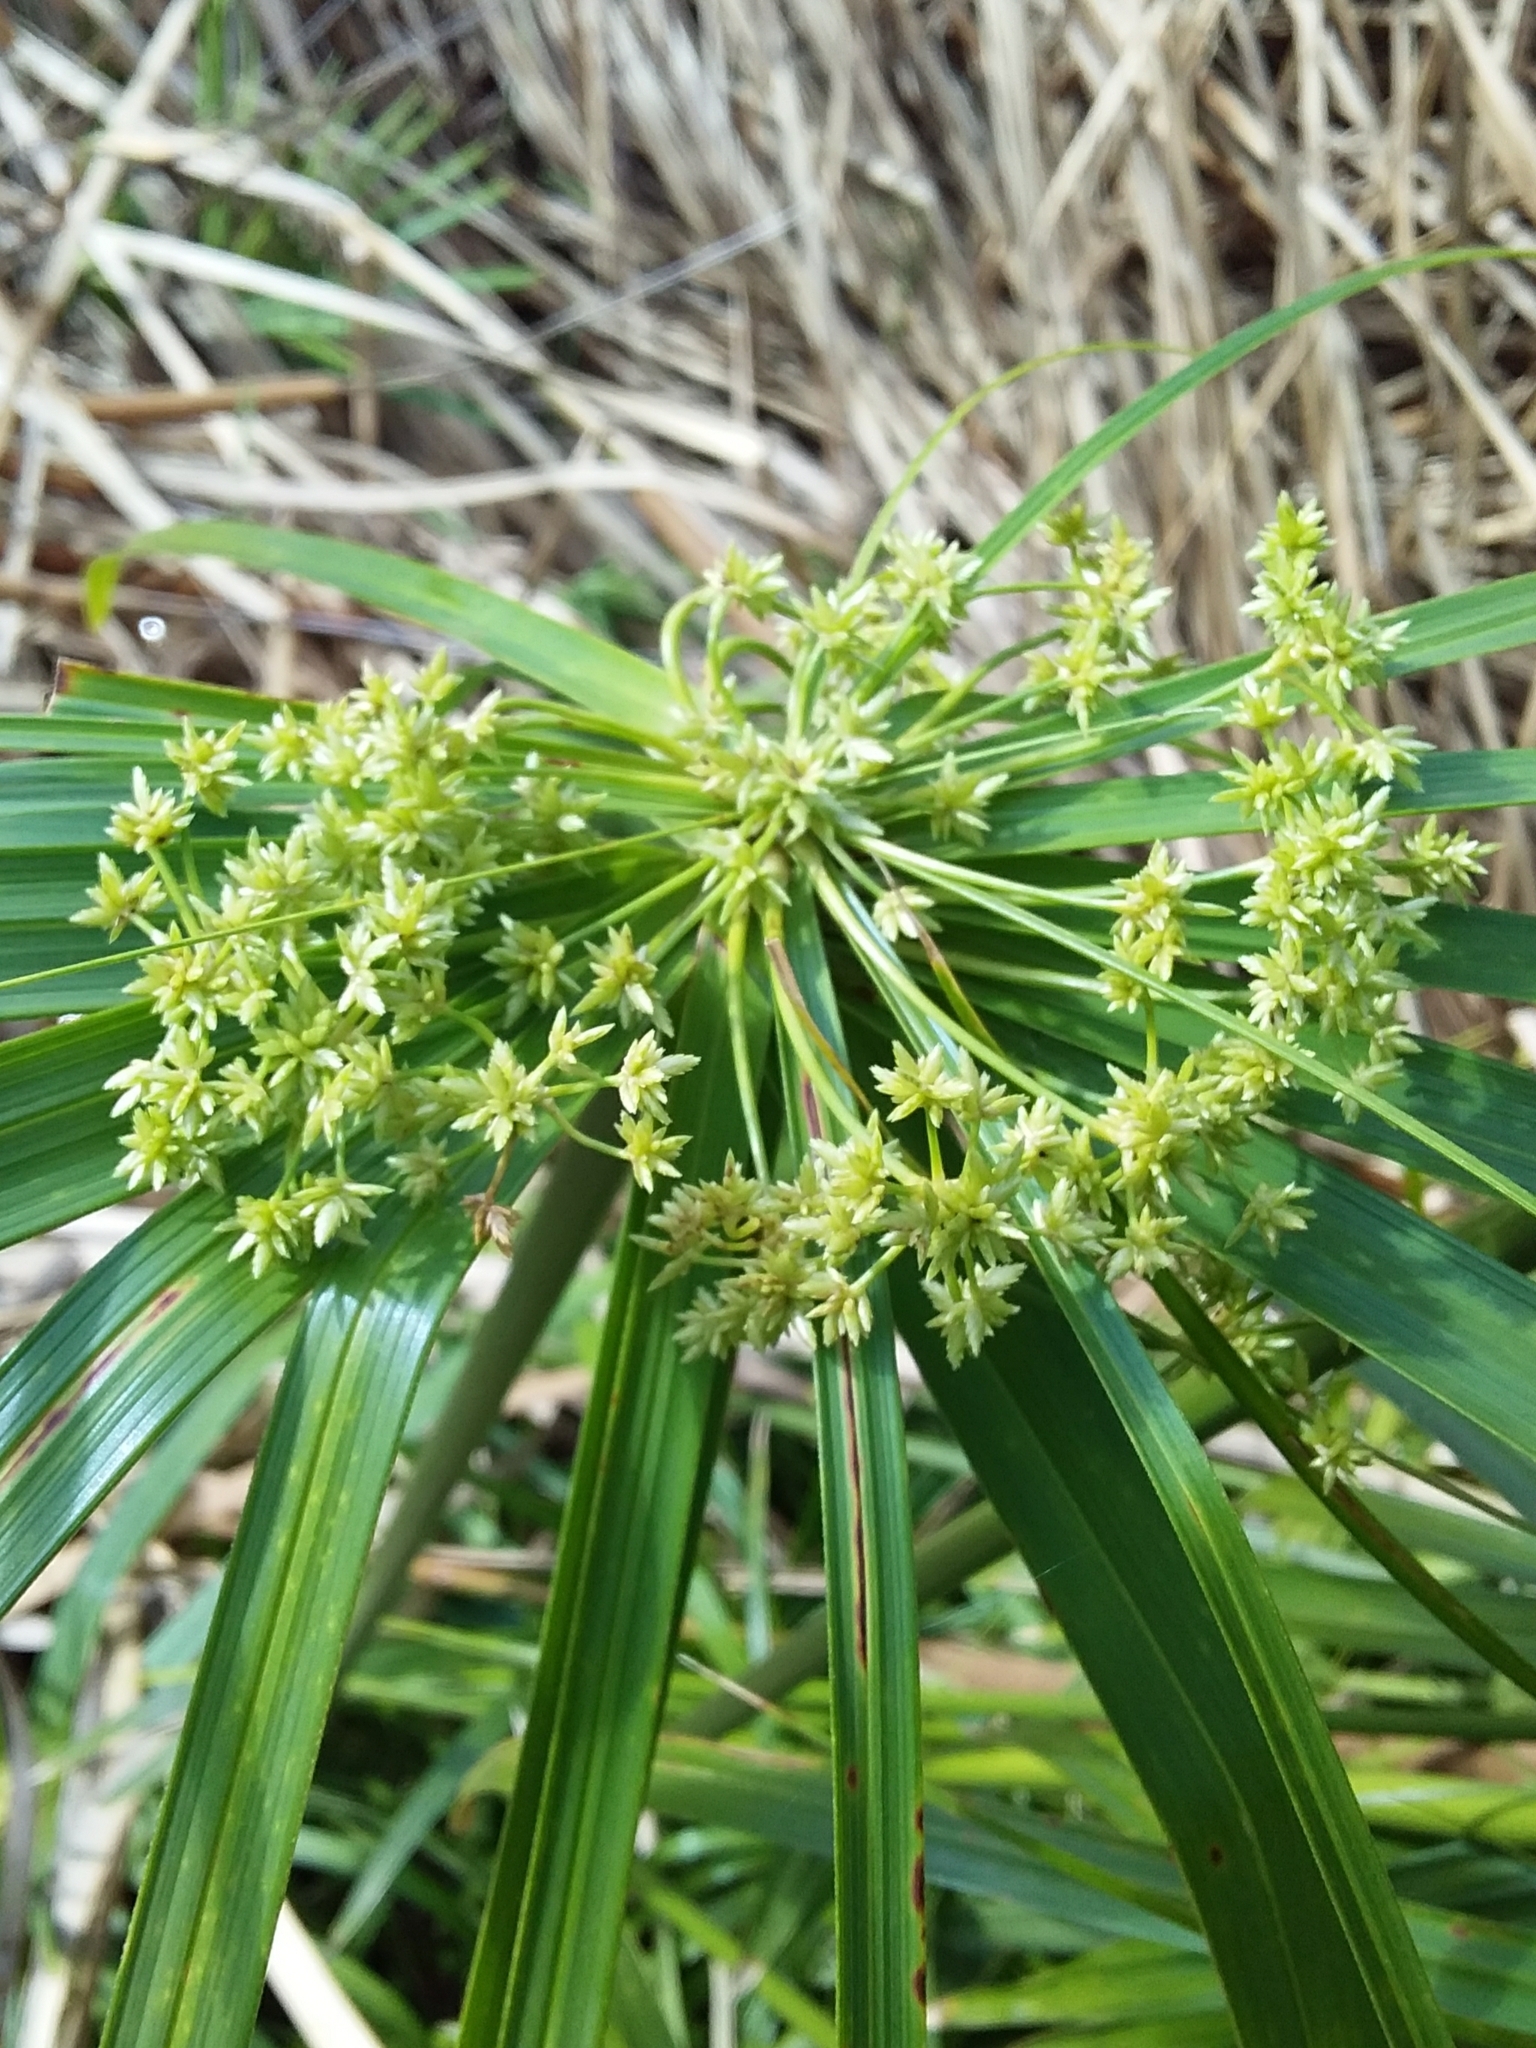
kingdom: Plantae
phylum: Tracheophyta
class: Liliopsida
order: Poales
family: Cyperaceae
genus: Cyperus
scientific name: Cyperus alternifolius
